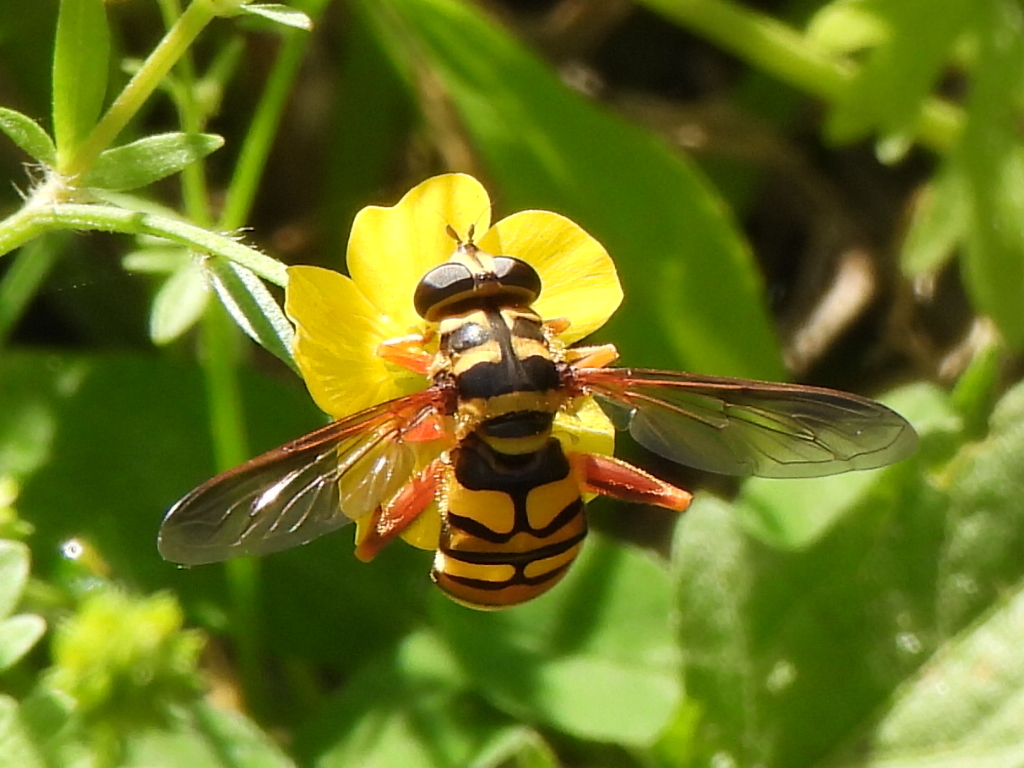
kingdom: Animalia
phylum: Arthropoda
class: Insecta
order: Diptera
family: Syrphidae
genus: Milesia
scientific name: Milesia virginiensis
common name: Virginia giant
